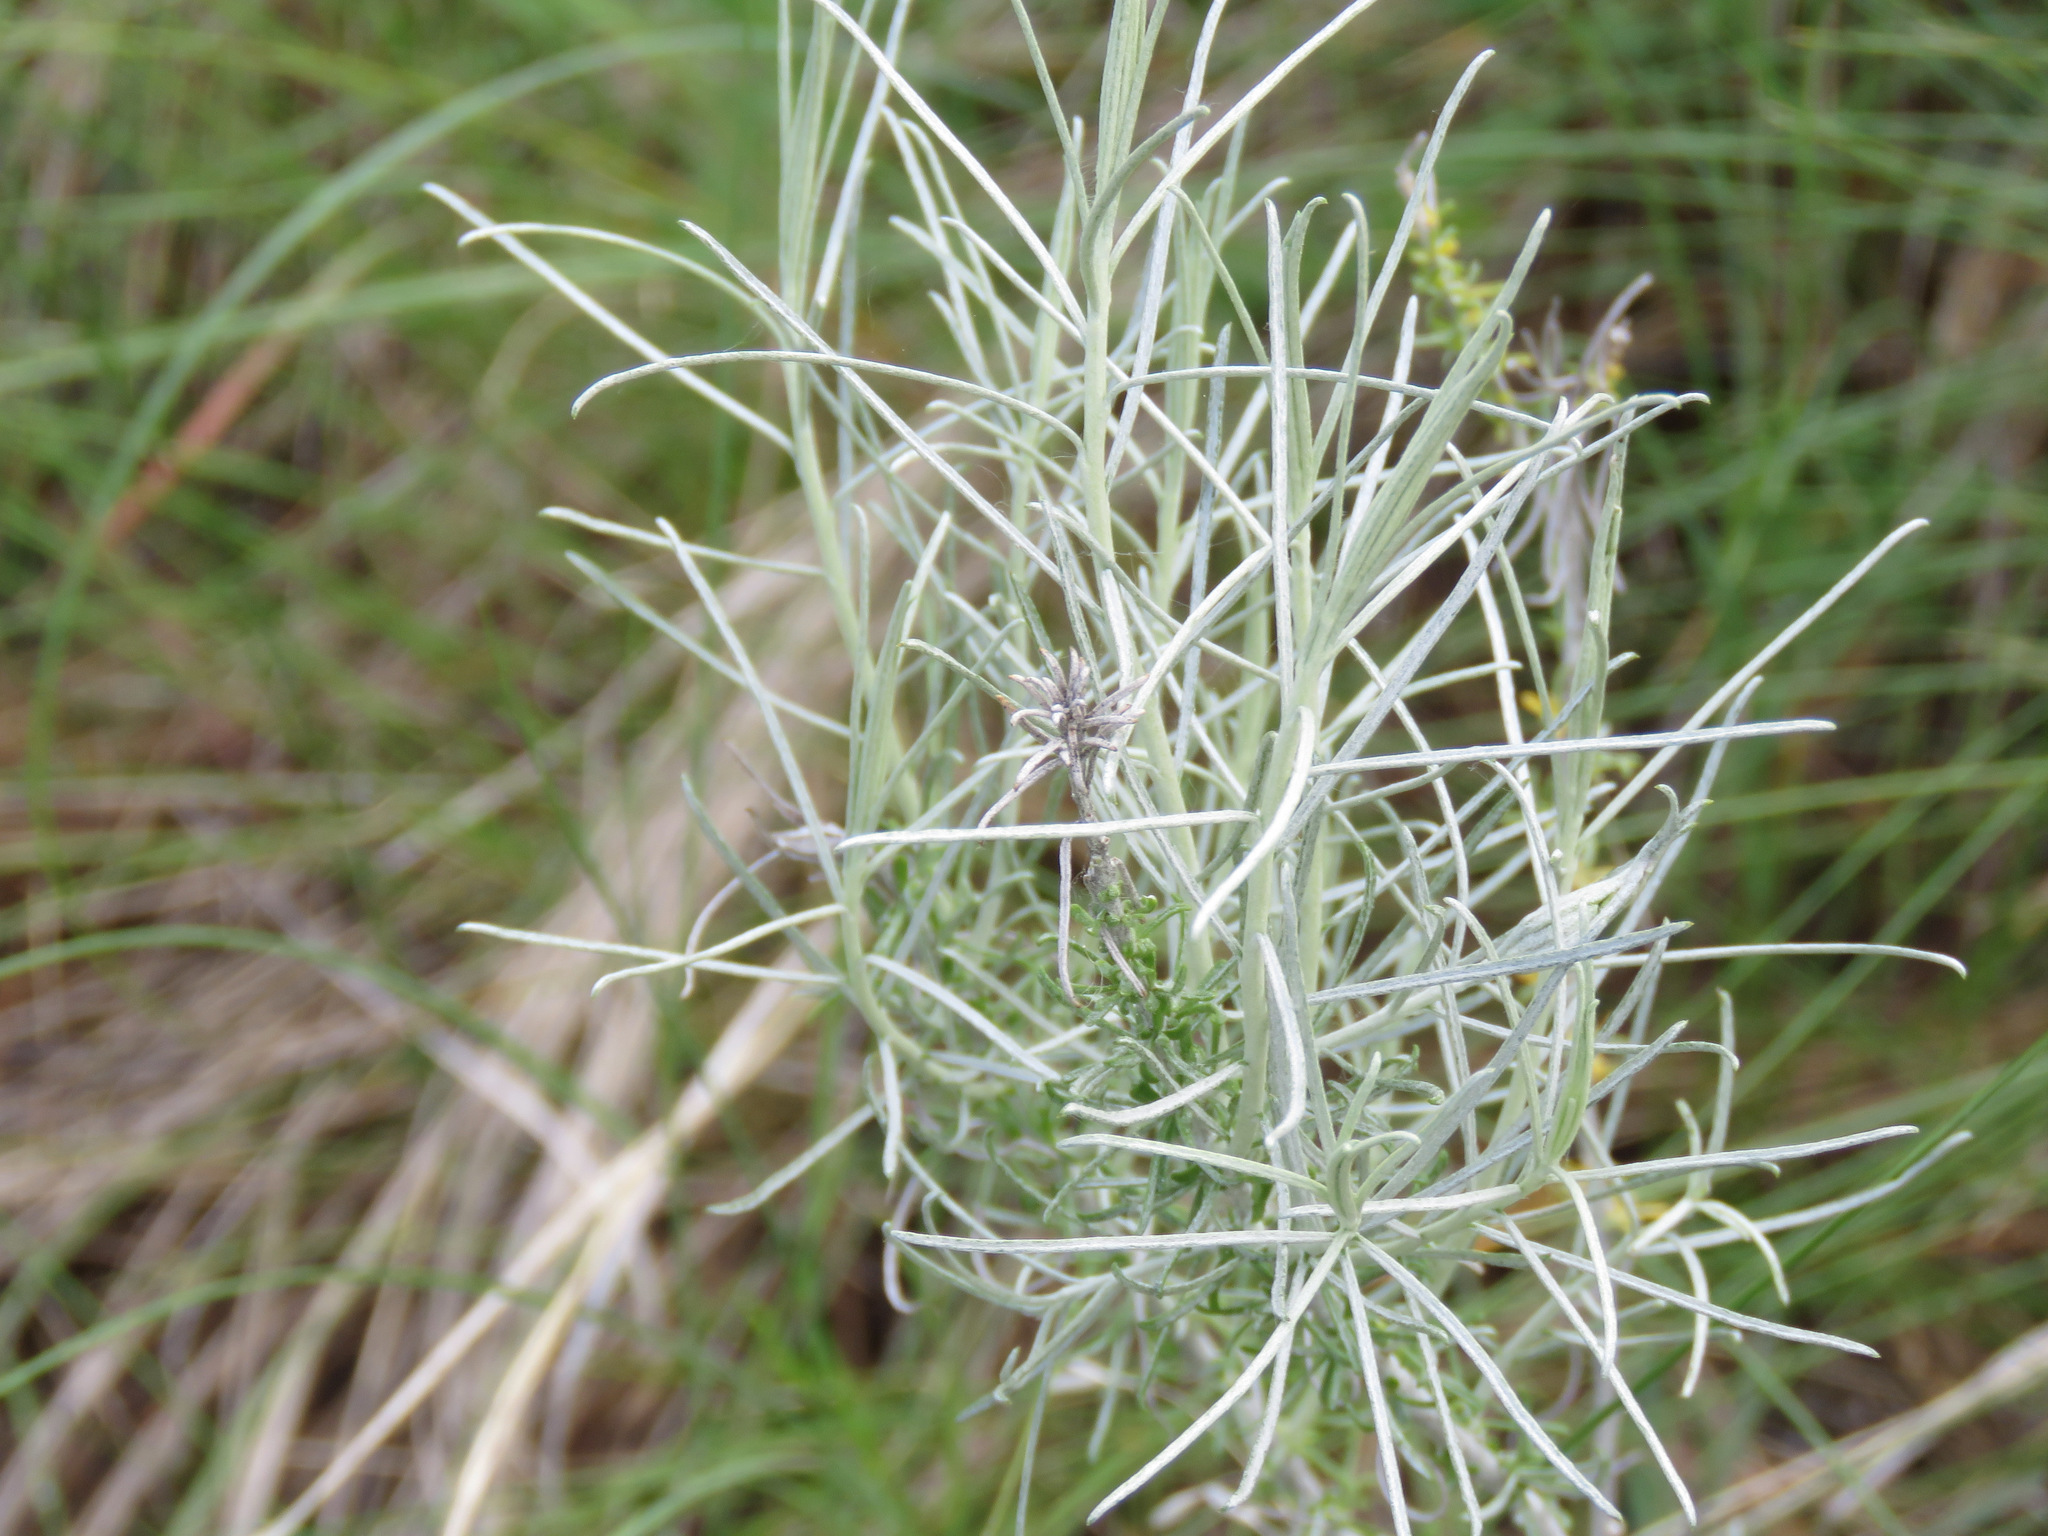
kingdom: Plantae
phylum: Tracheophyta
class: Magnoliopsida
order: Asterales
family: Asteraceae
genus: Ericameria
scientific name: Ericameria nauseosa
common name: Rubber rabbitbrush
